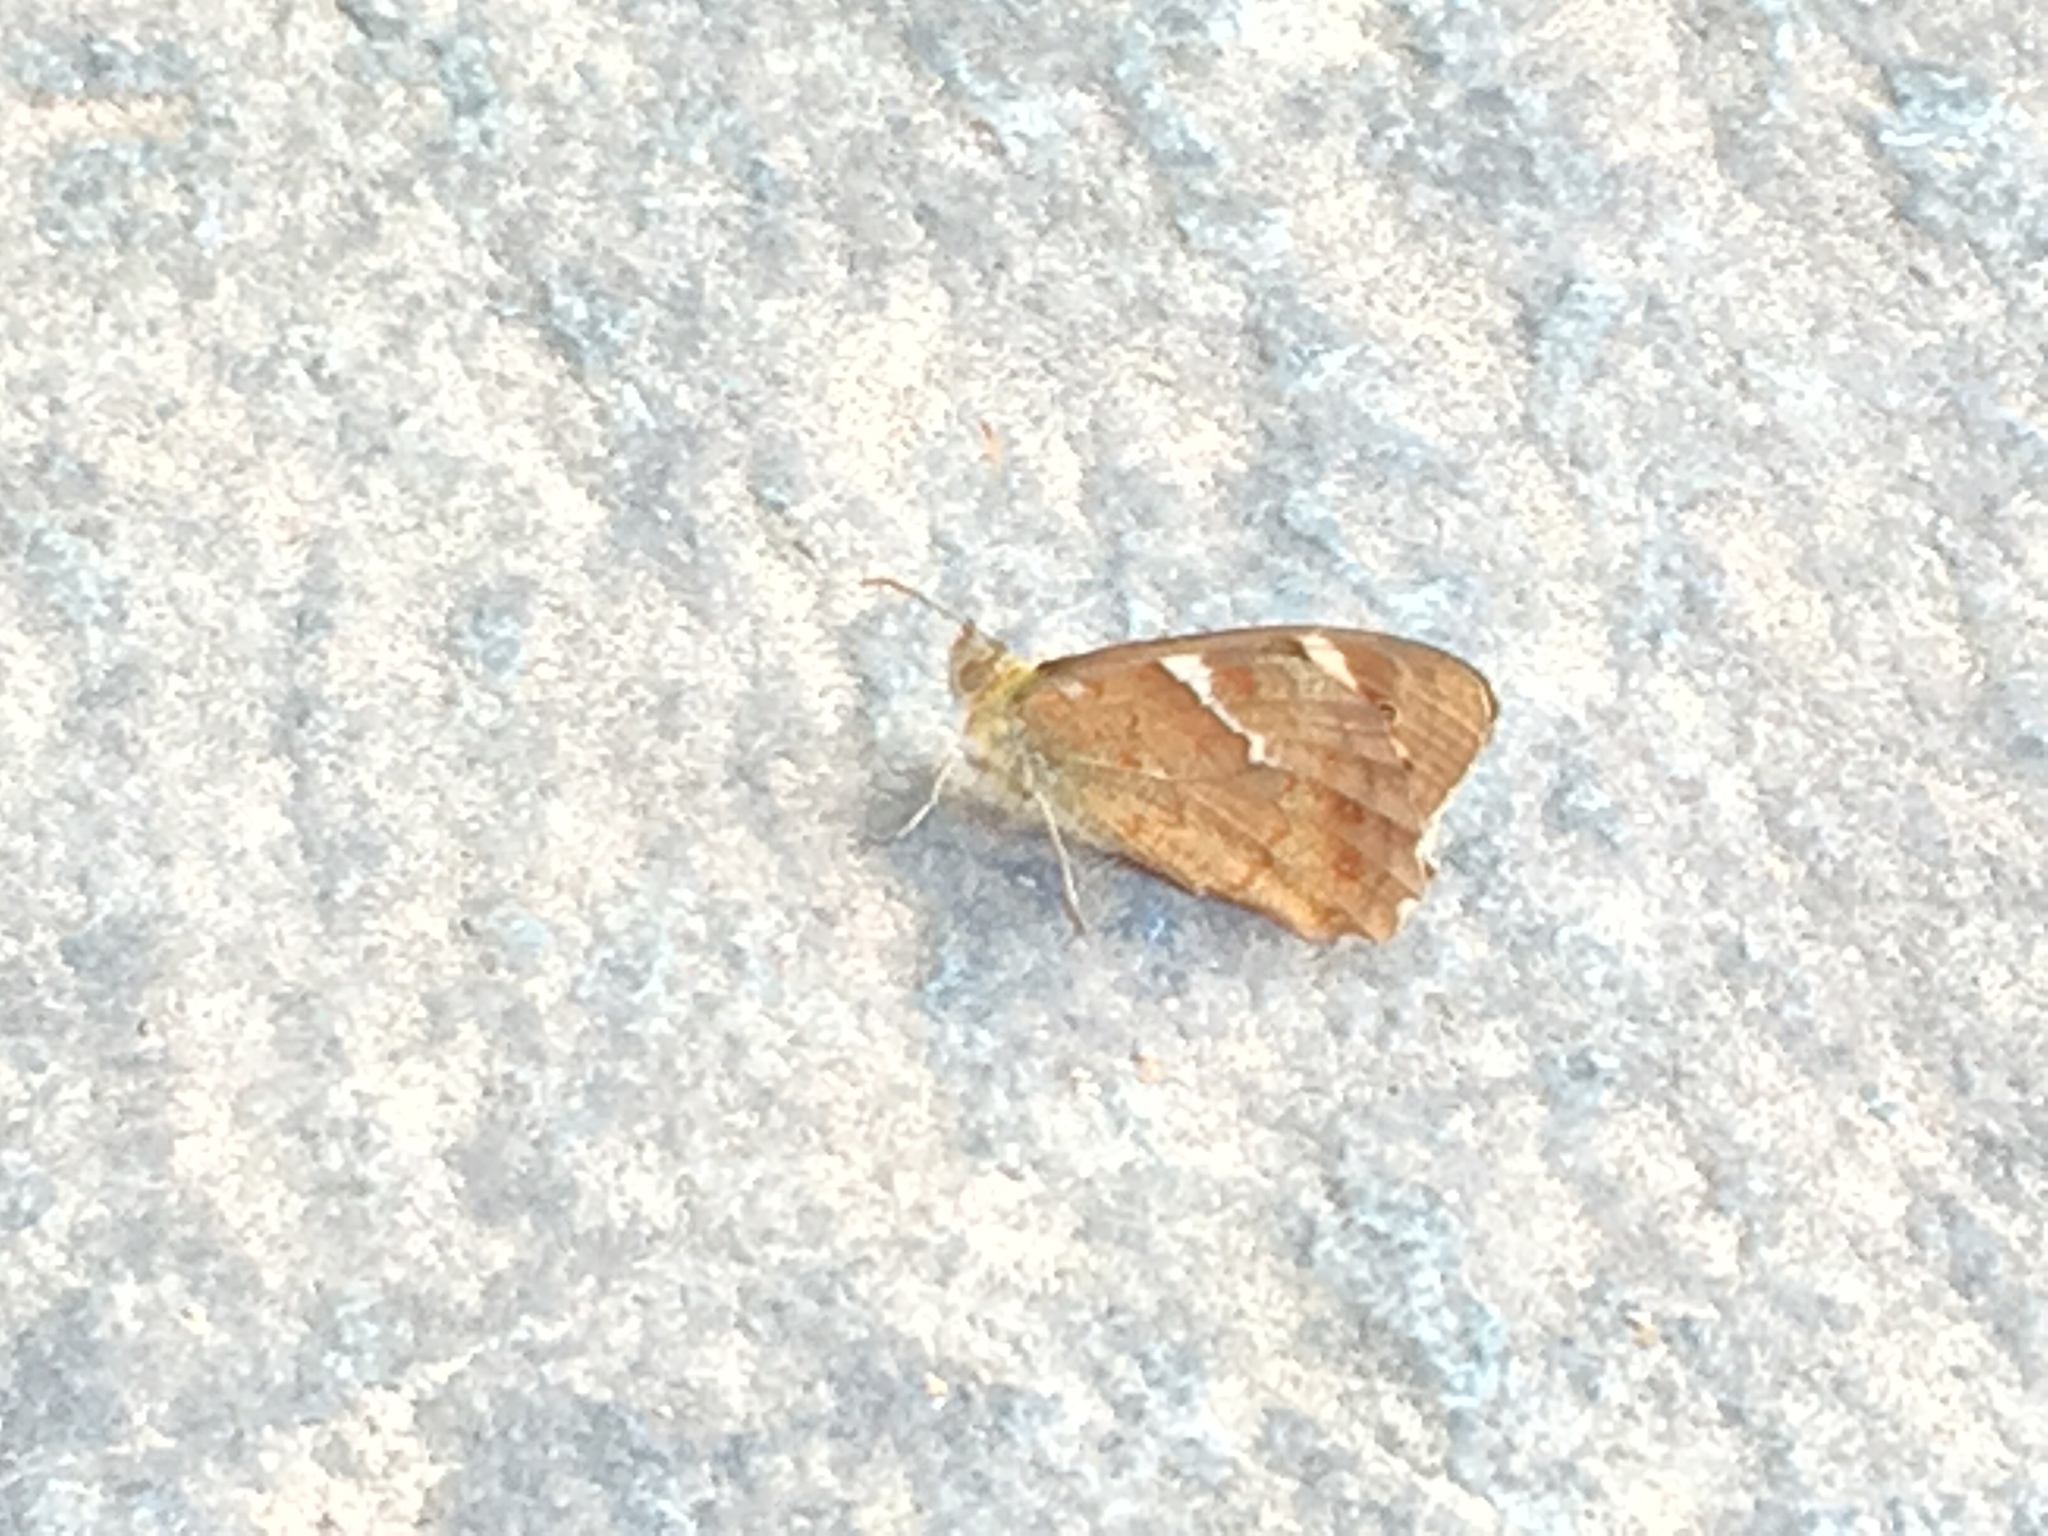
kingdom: Animalia
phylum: Arthropoda
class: Insecta
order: Lepidoptera
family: Nymphalidae
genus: Pararge
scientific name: Pararge aegeria
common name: Speckled wood
